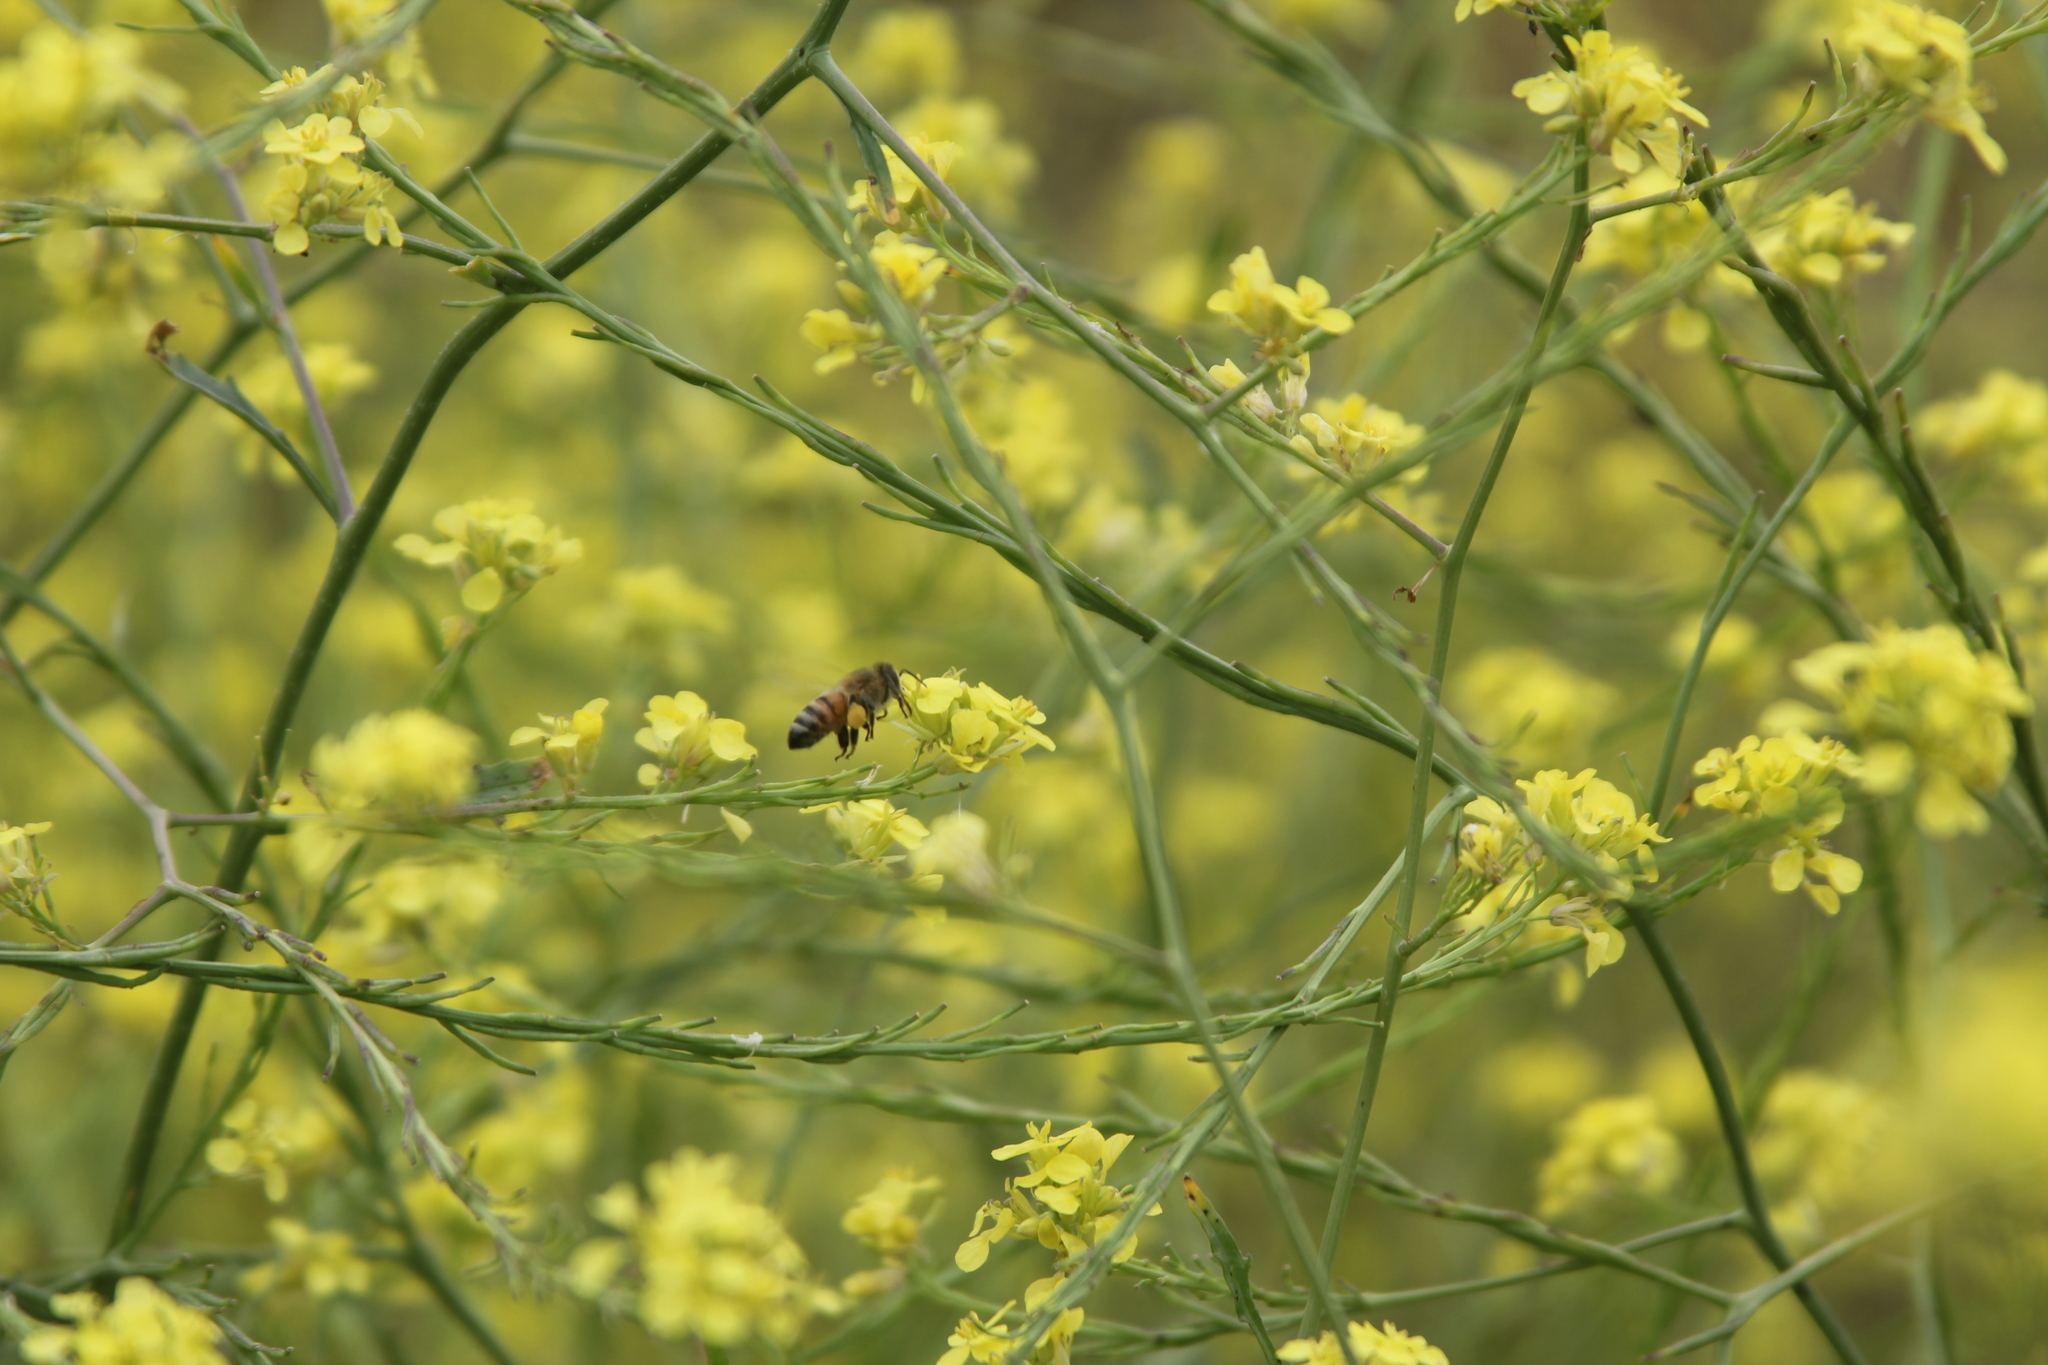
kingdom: Animalia
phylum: Arthropoda
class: Insecta
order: Hymenoptera
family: Apidae
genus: Apis
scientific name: Apis mellifera
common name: Honey bee
